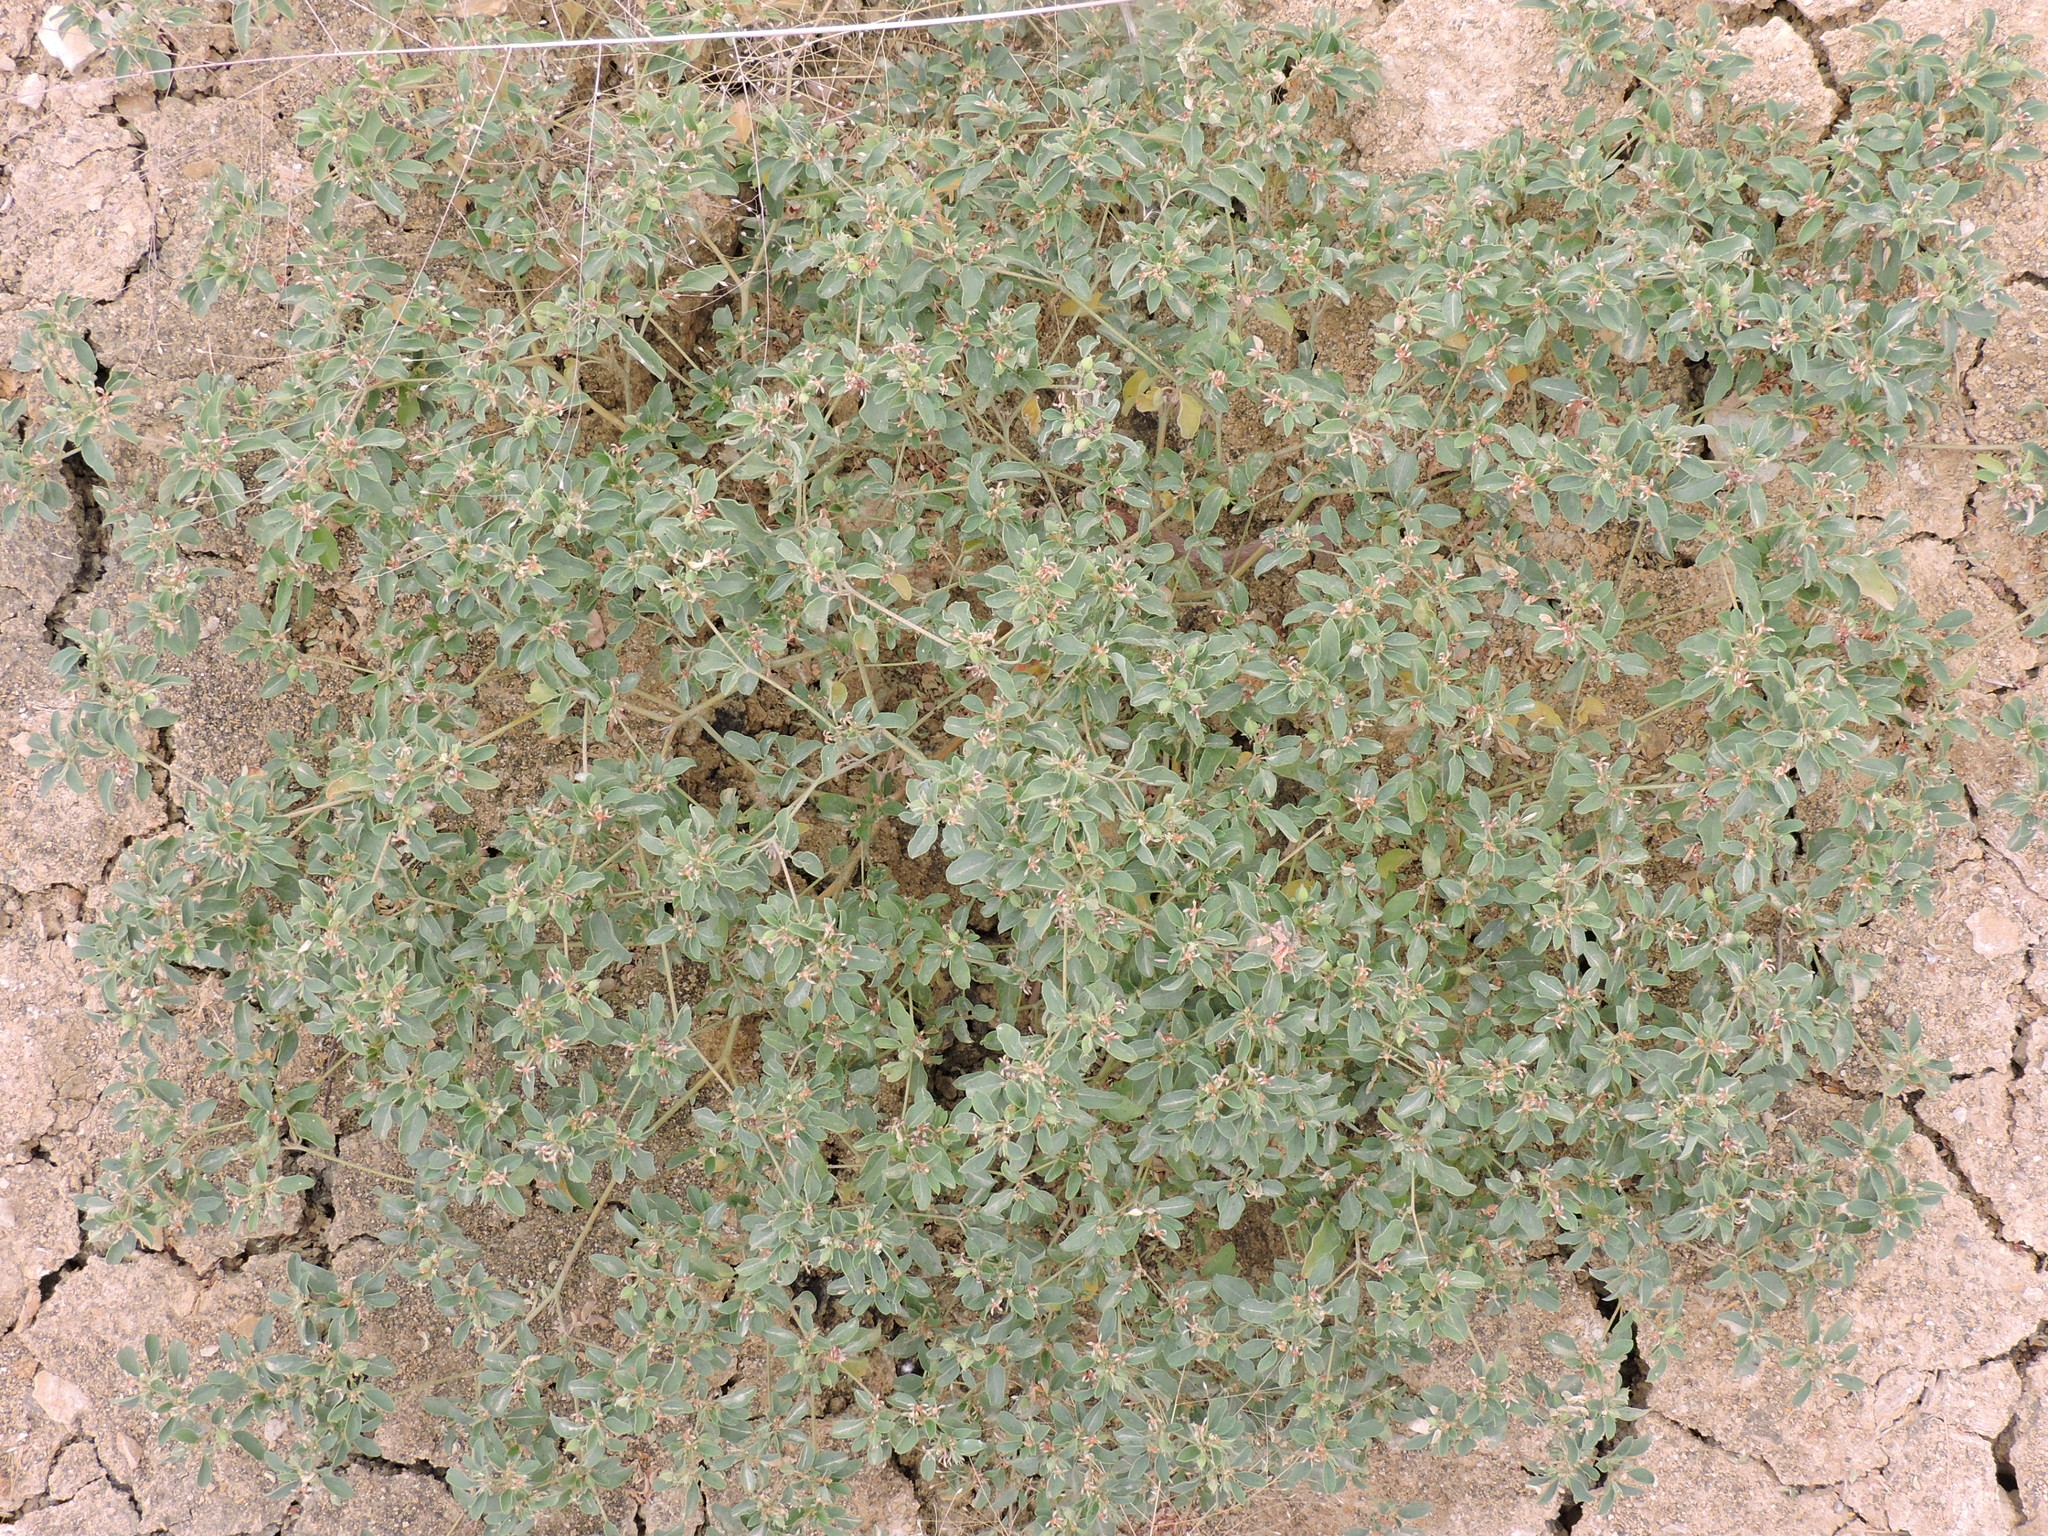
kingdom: Plantae
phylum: Tracheophyta
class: Magnoliopsida
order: Malpighiales
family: Euphorbiaceae
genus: Croton
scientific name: Croton monanthogynus
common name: One-seed croton
